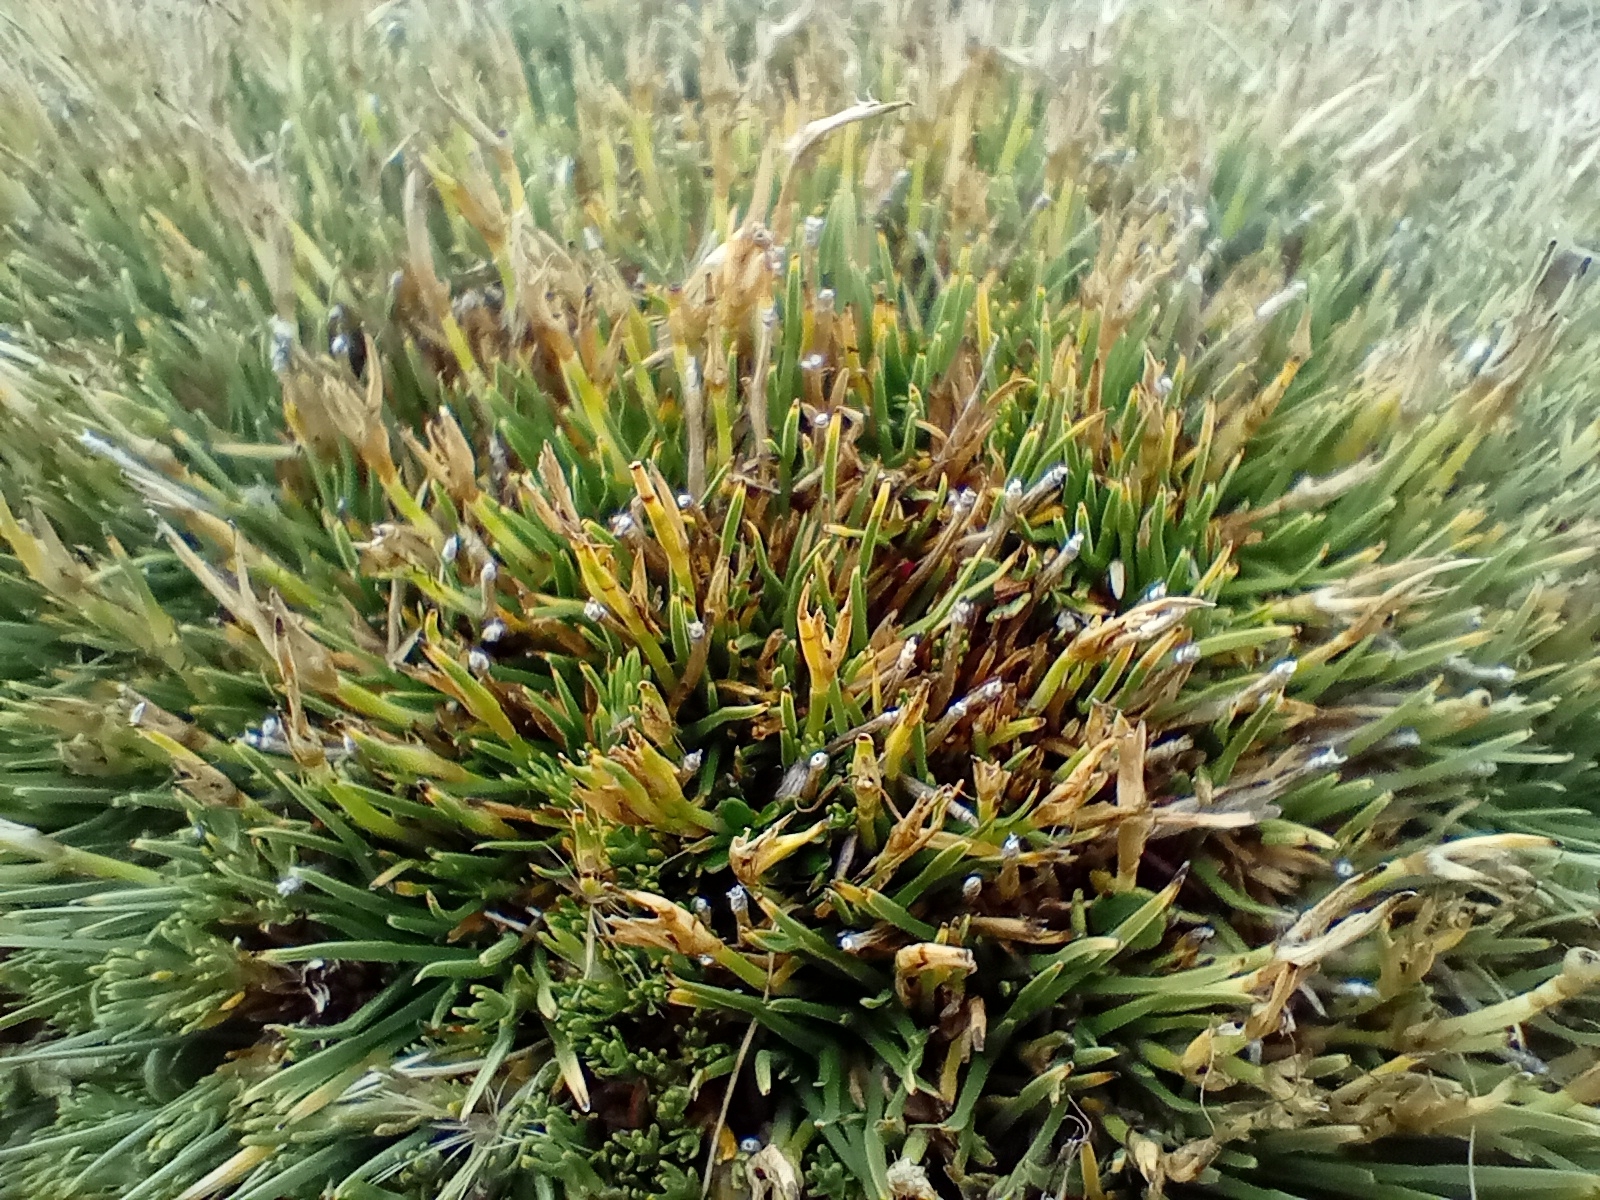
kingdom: Plantae
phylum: Tracheophyta
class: Liliopsida
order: Poales
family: Cyperaceae
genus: Oreobolus
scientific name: Oreobolus pectinatus
